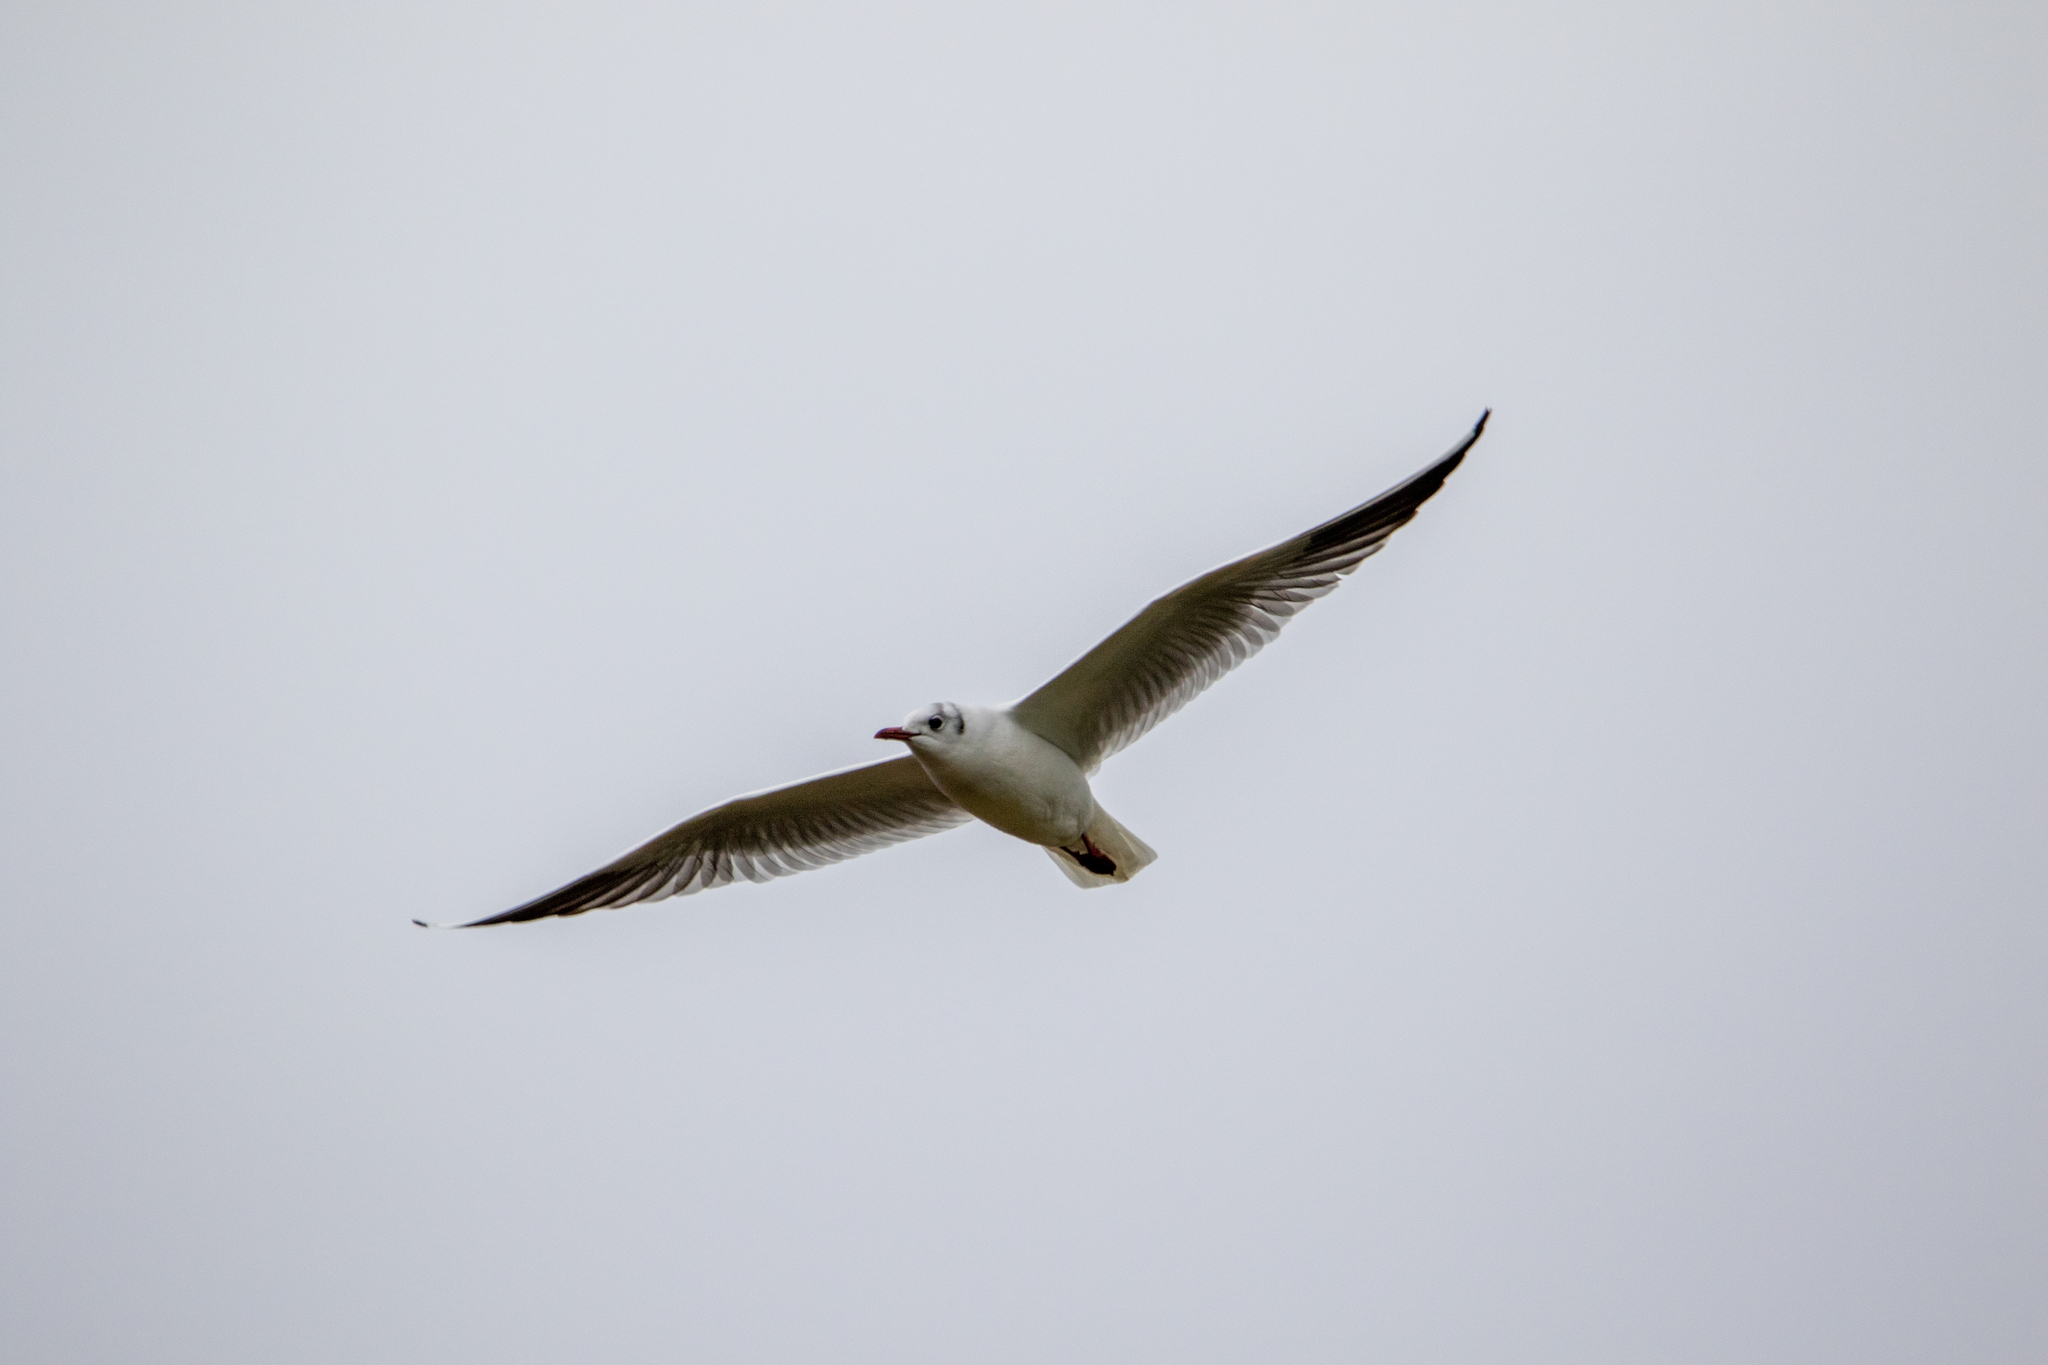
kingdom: Animalia
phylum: Chordata
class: Aves
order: Charadriiformes
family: Laridae
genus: Chroicocephalus
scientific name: Chroicocephalus ridibundus
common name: Black-headed gull
